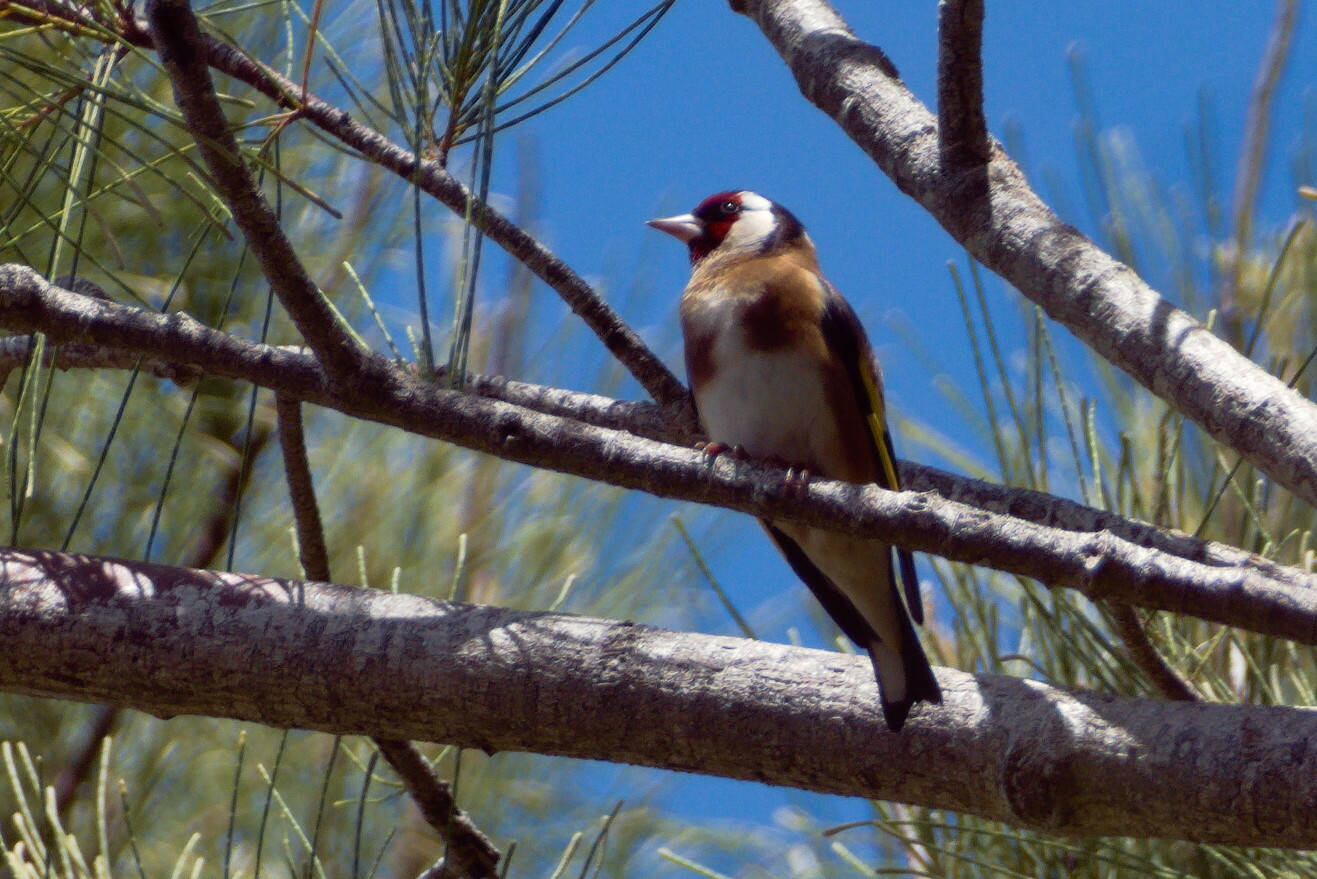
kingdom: Animalia
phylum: Chordata
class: Aves
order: Passeriformes
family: Fringillidae
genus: Carduelis
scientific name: Carduelis carduelis
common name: European goldfinch
